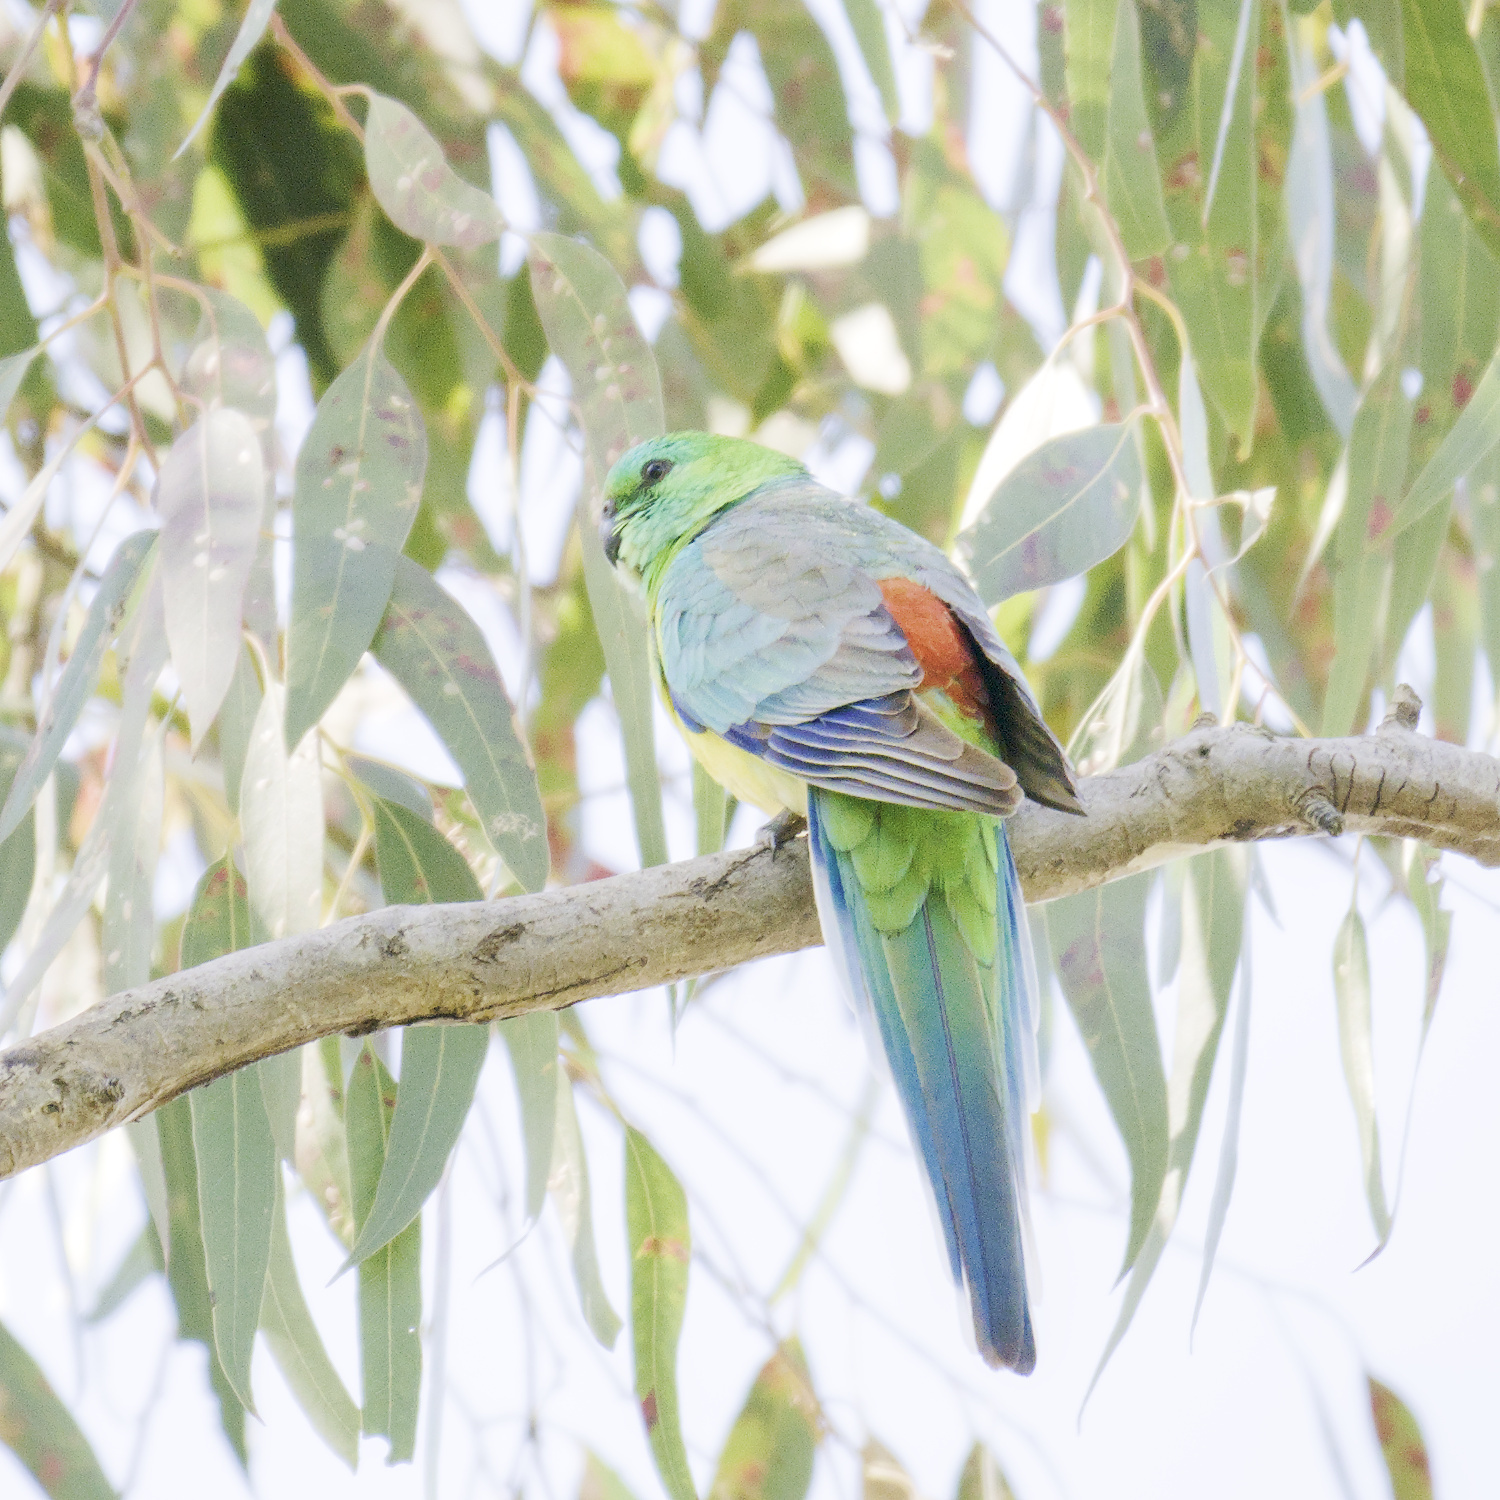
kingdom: Animalia
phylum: Chordata
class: Aves
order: Psittaciformes
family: Psittacidae
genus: Psephotus
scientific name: Psephotus haematonotus
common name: Red-rumped parrot
